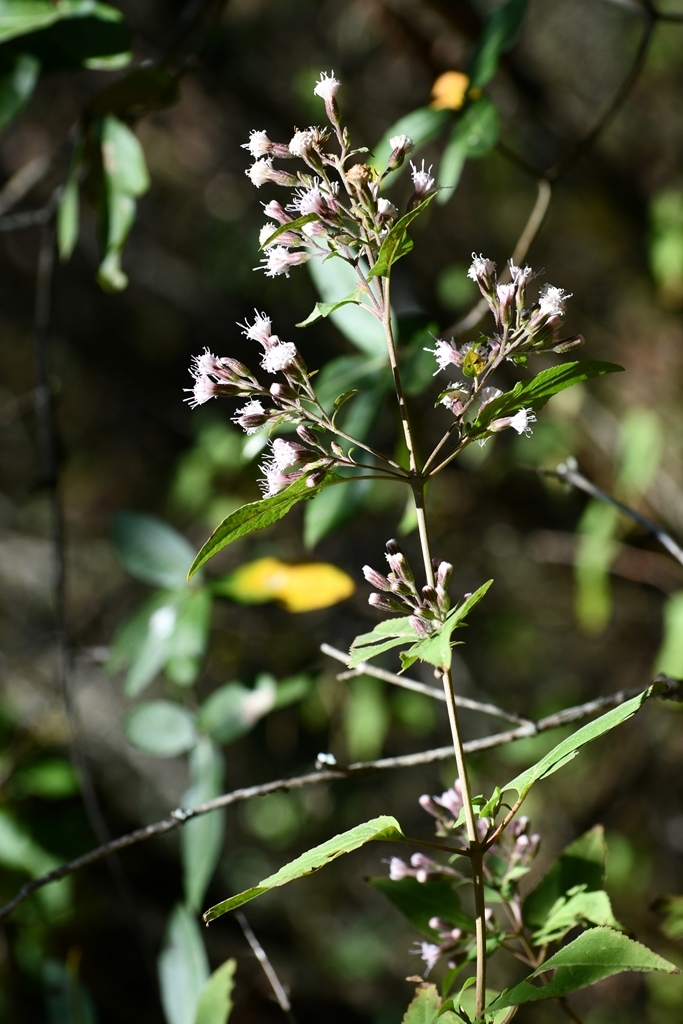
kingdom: Plantae
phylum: Tracheophyta
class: Magnoliopsida
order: Asterales
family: Asteraceae
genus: Ageratina
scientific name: Ageratina mairetiana
